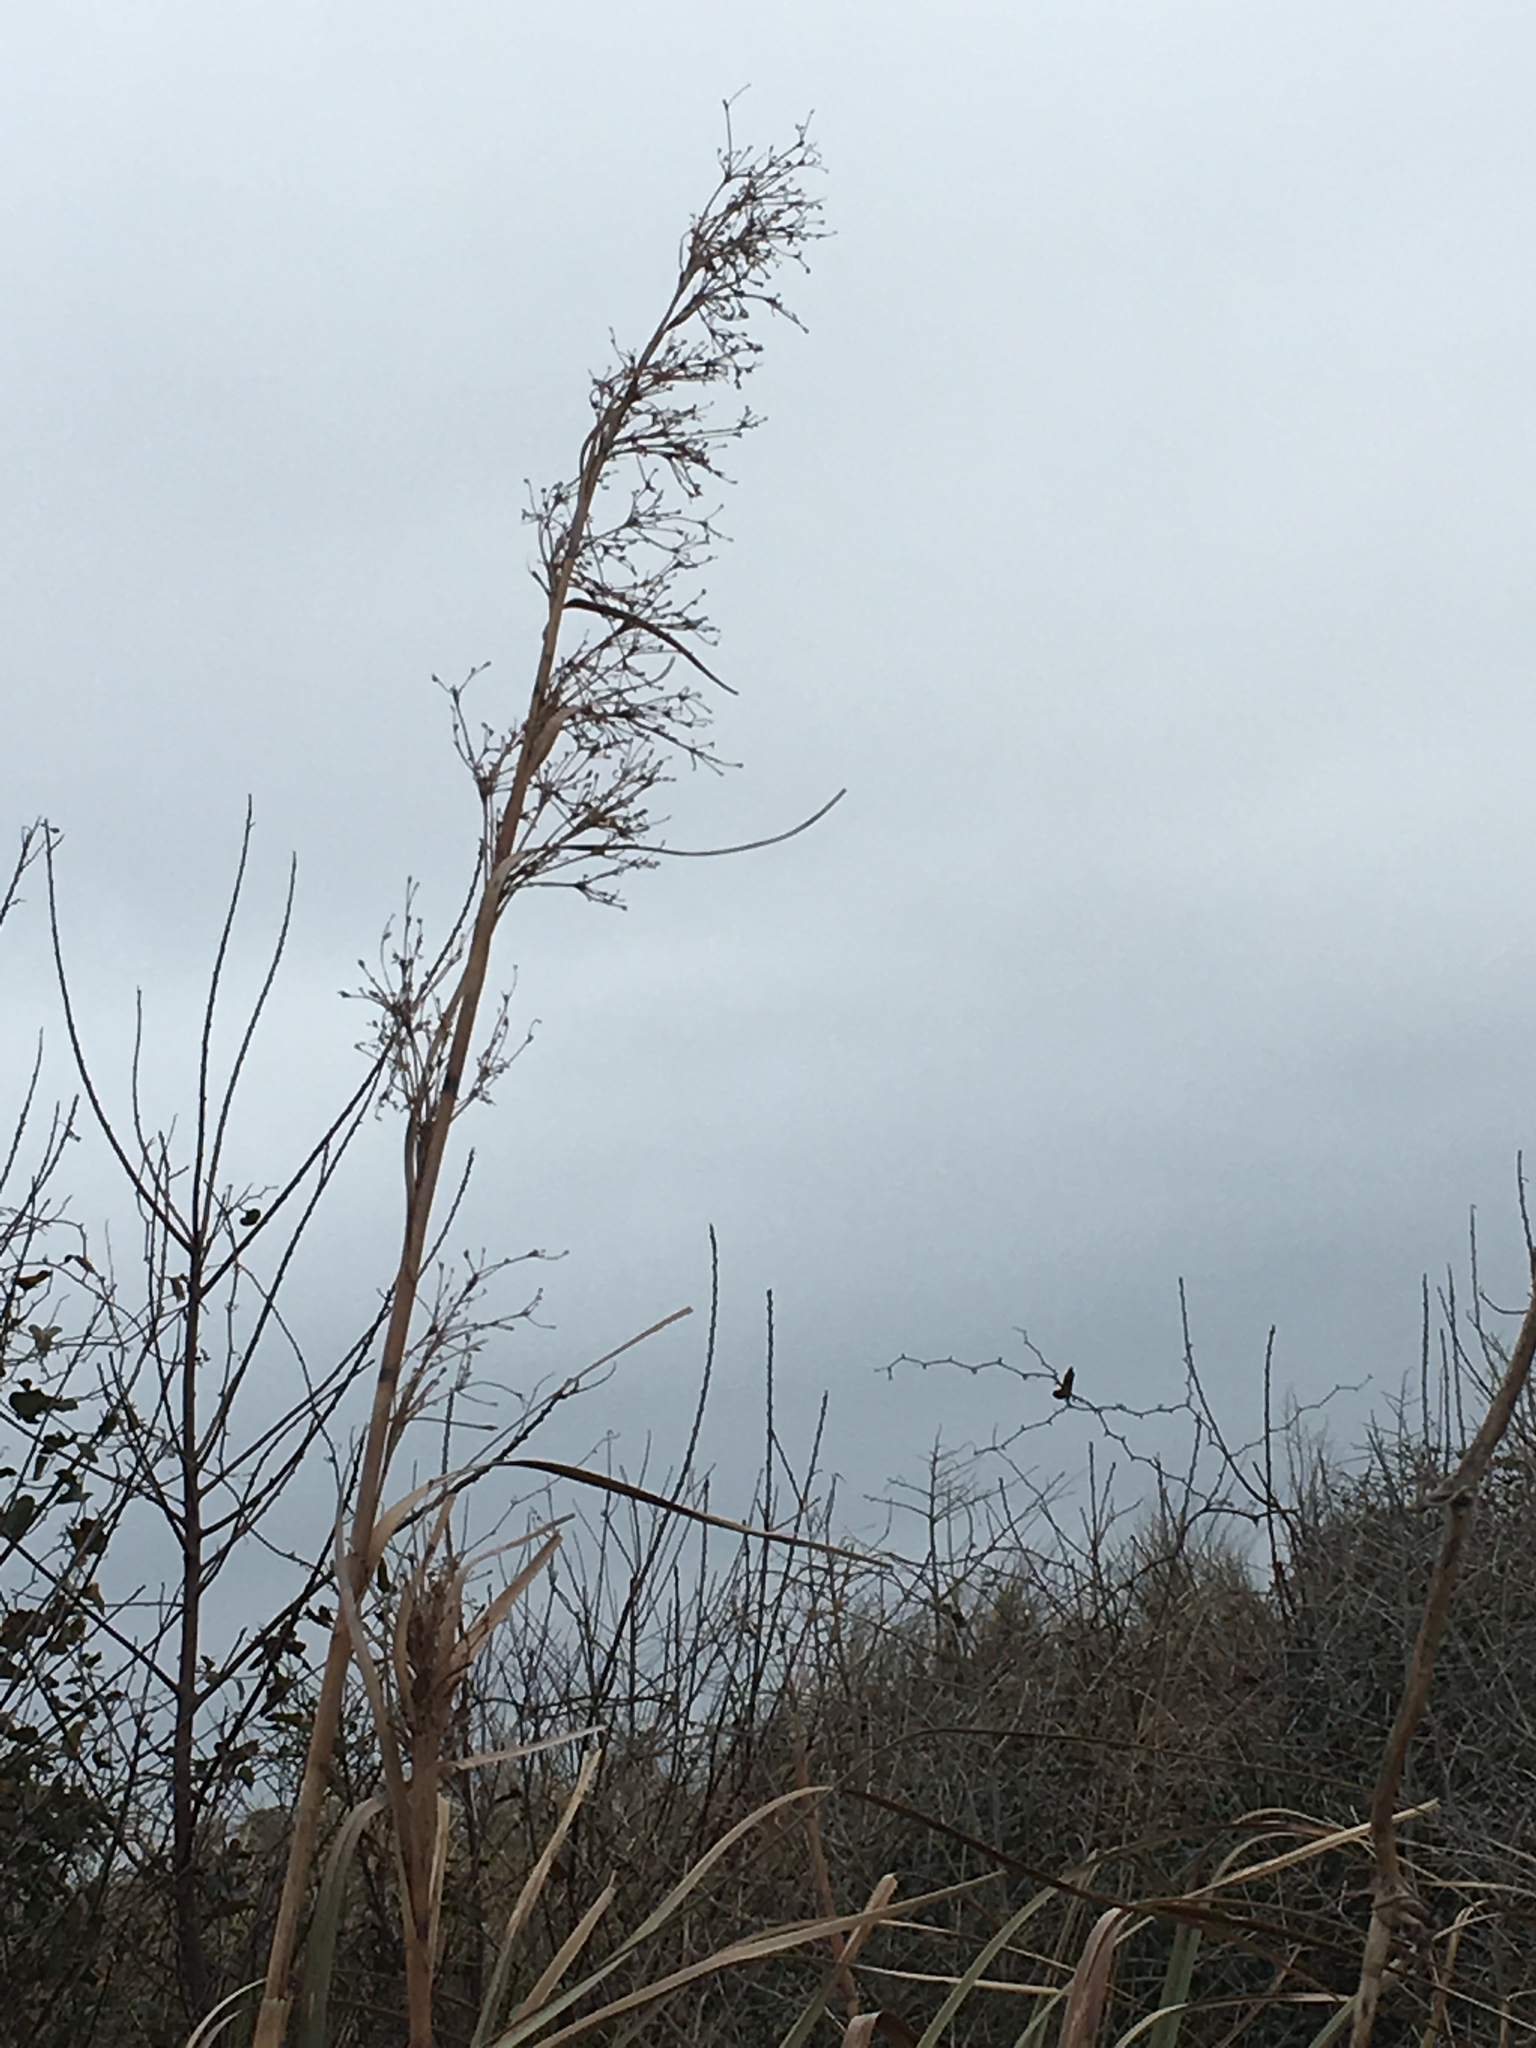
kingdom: Plantae
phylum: Tracheophyta
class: Liliopsida
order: Poales
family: Cyperaceae
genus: Cladium
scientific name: Cladium mariscus
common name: Great fen-sedge
